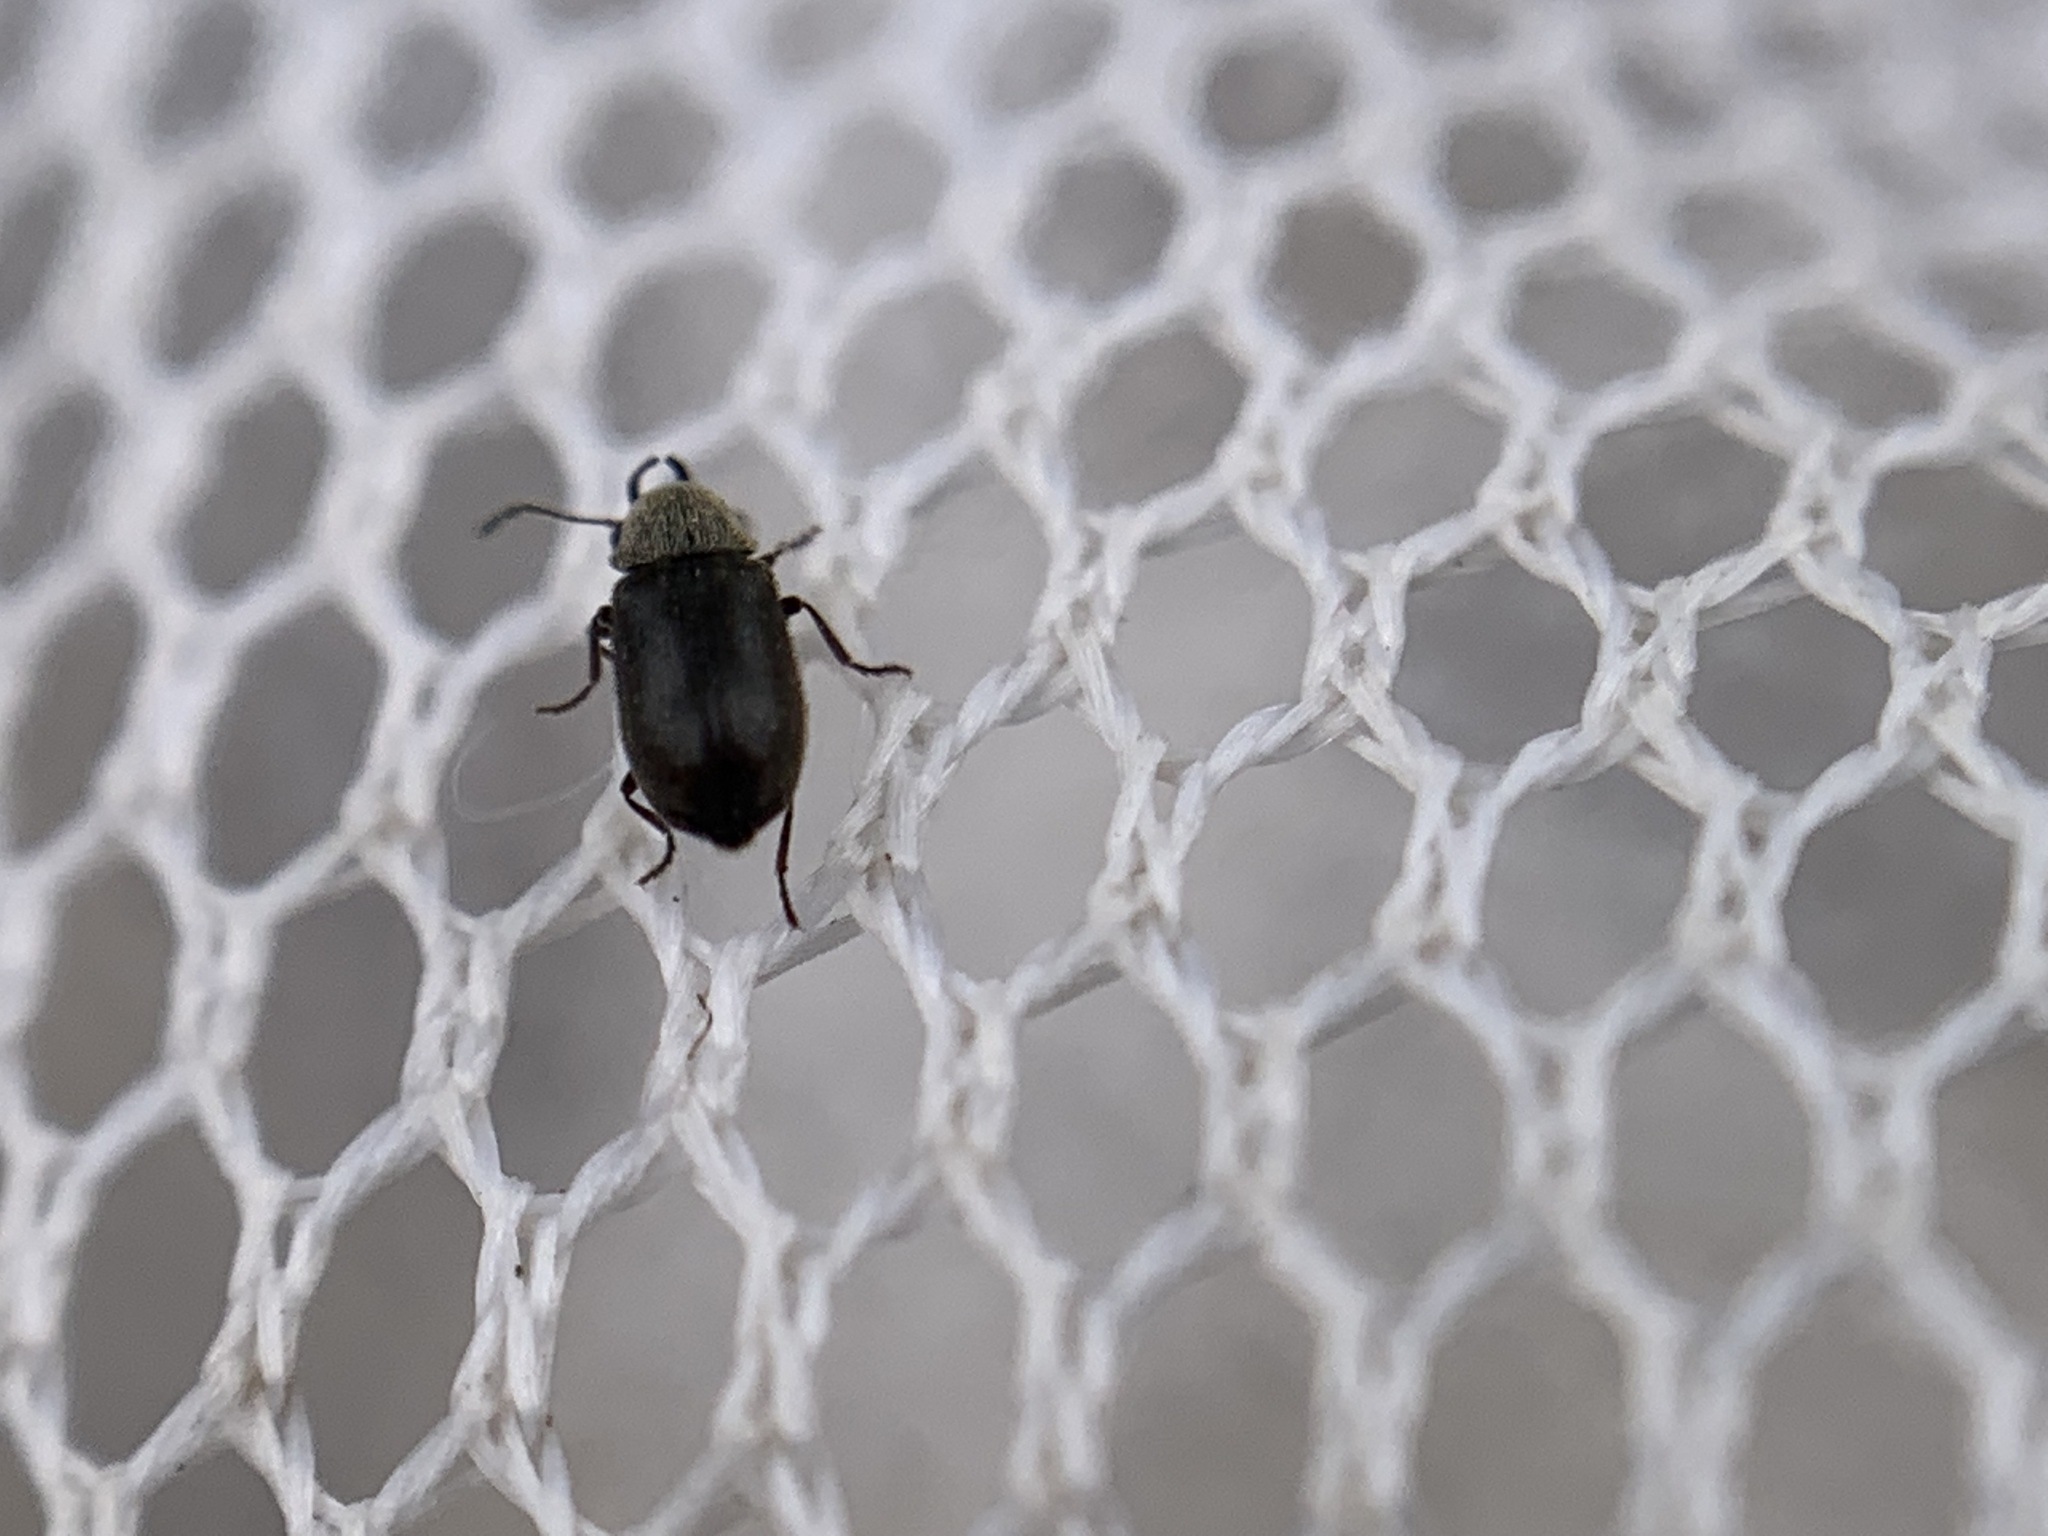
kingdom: Animalia
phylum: Arthropoda
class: Insecta
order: Coleoptera
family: Anobiidae
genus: Ozognathus
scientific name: Ozognathus cornutus
